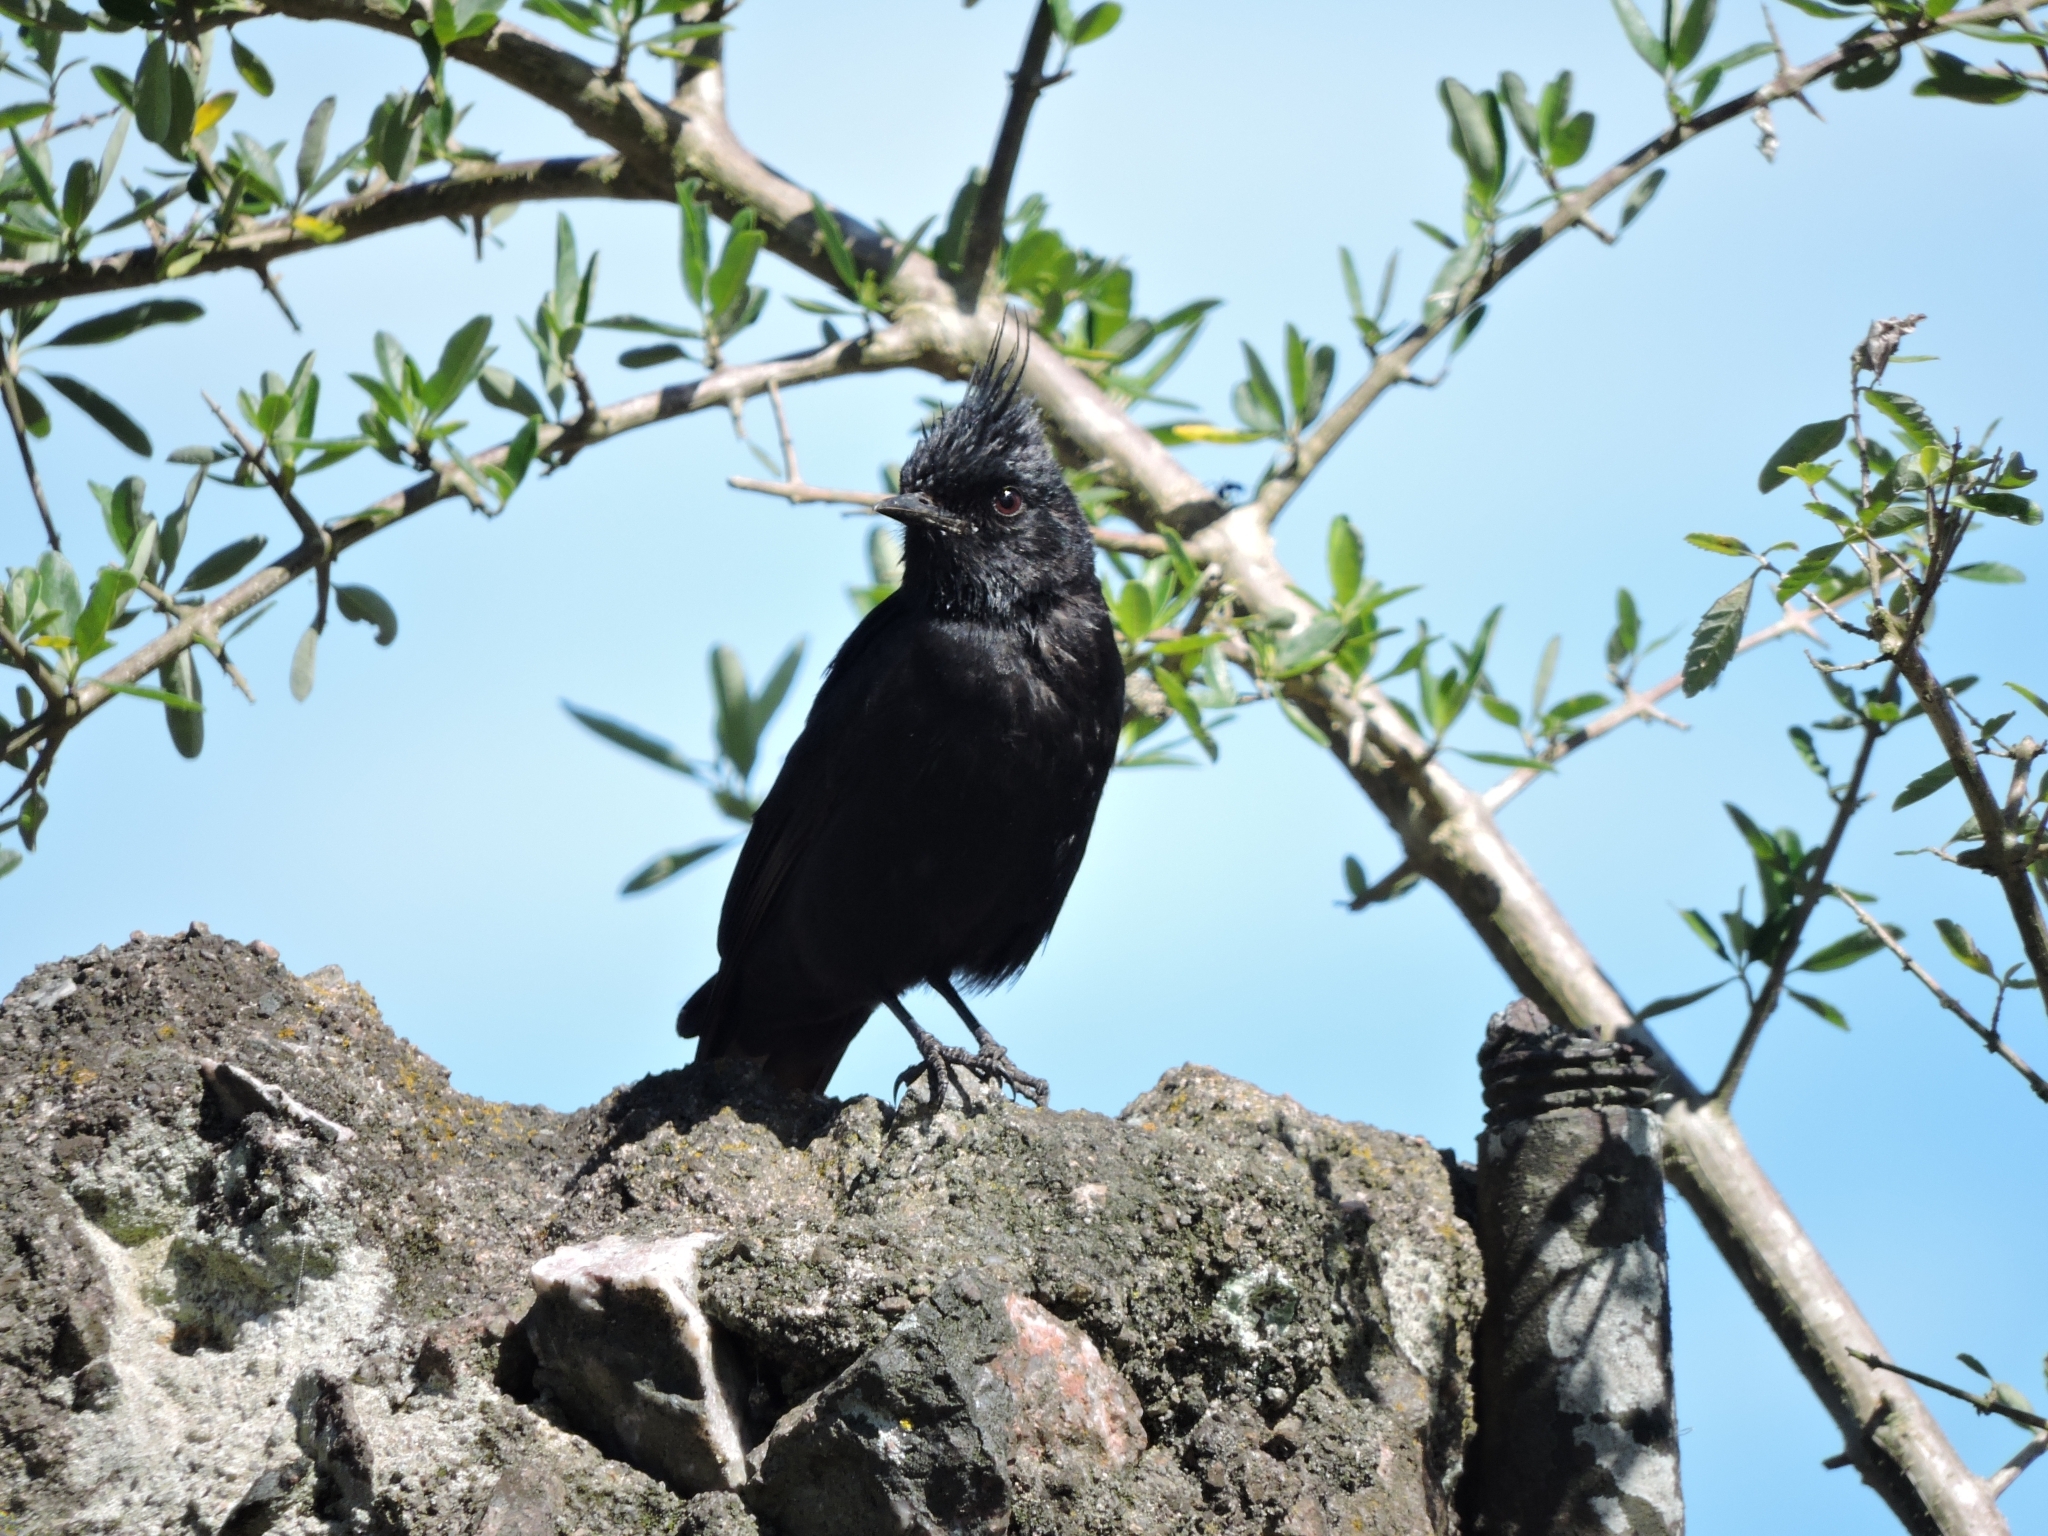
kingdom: Animalia
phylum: Chordata
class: Aves
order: Passeriformes
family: Tyrannidae
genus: Knipolegus
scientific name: Knipolegus lophotes
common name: Crested black tyrant
